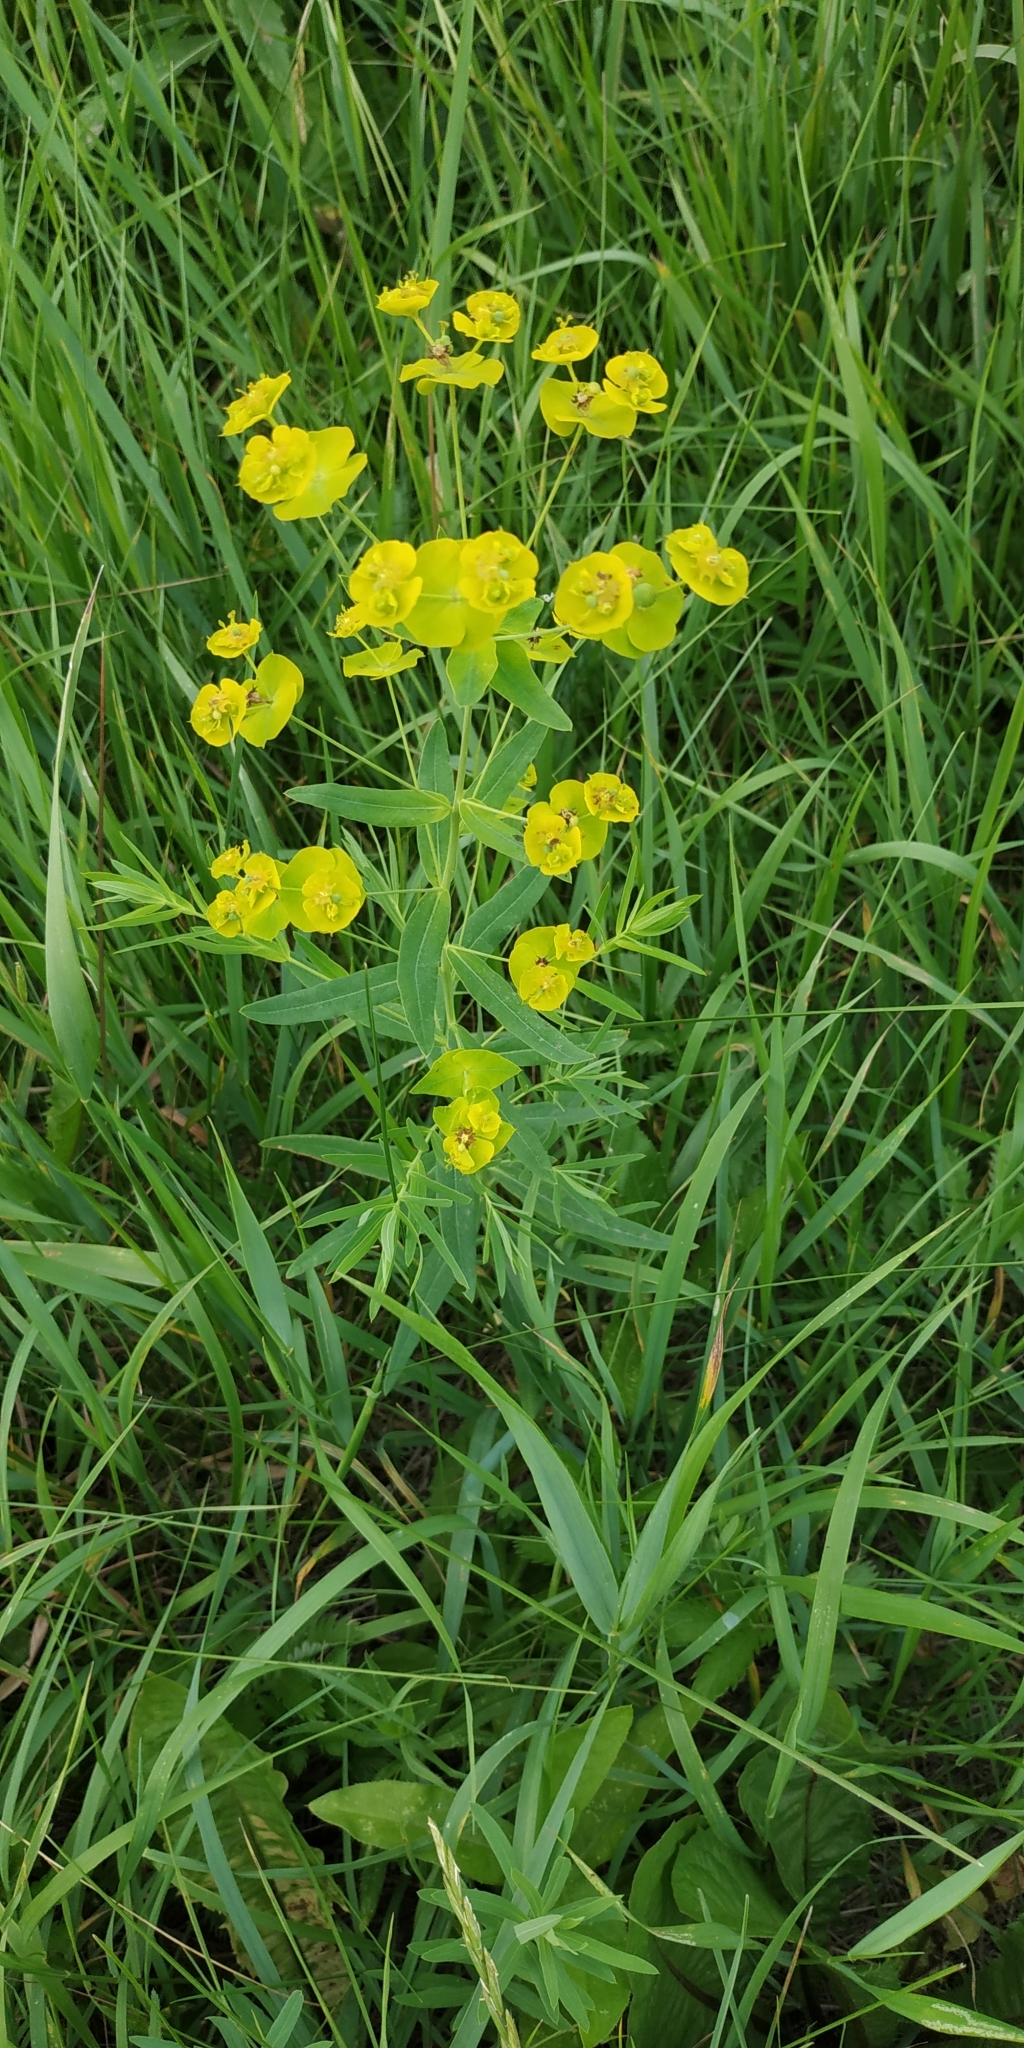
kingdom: Plantae
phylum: Tracheophyta
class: Magnoliopsida
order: Malpighiales
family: Euphorbiaceae
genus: Euphorbia
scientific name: Euphorbia virgata
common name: Leafy spurge
